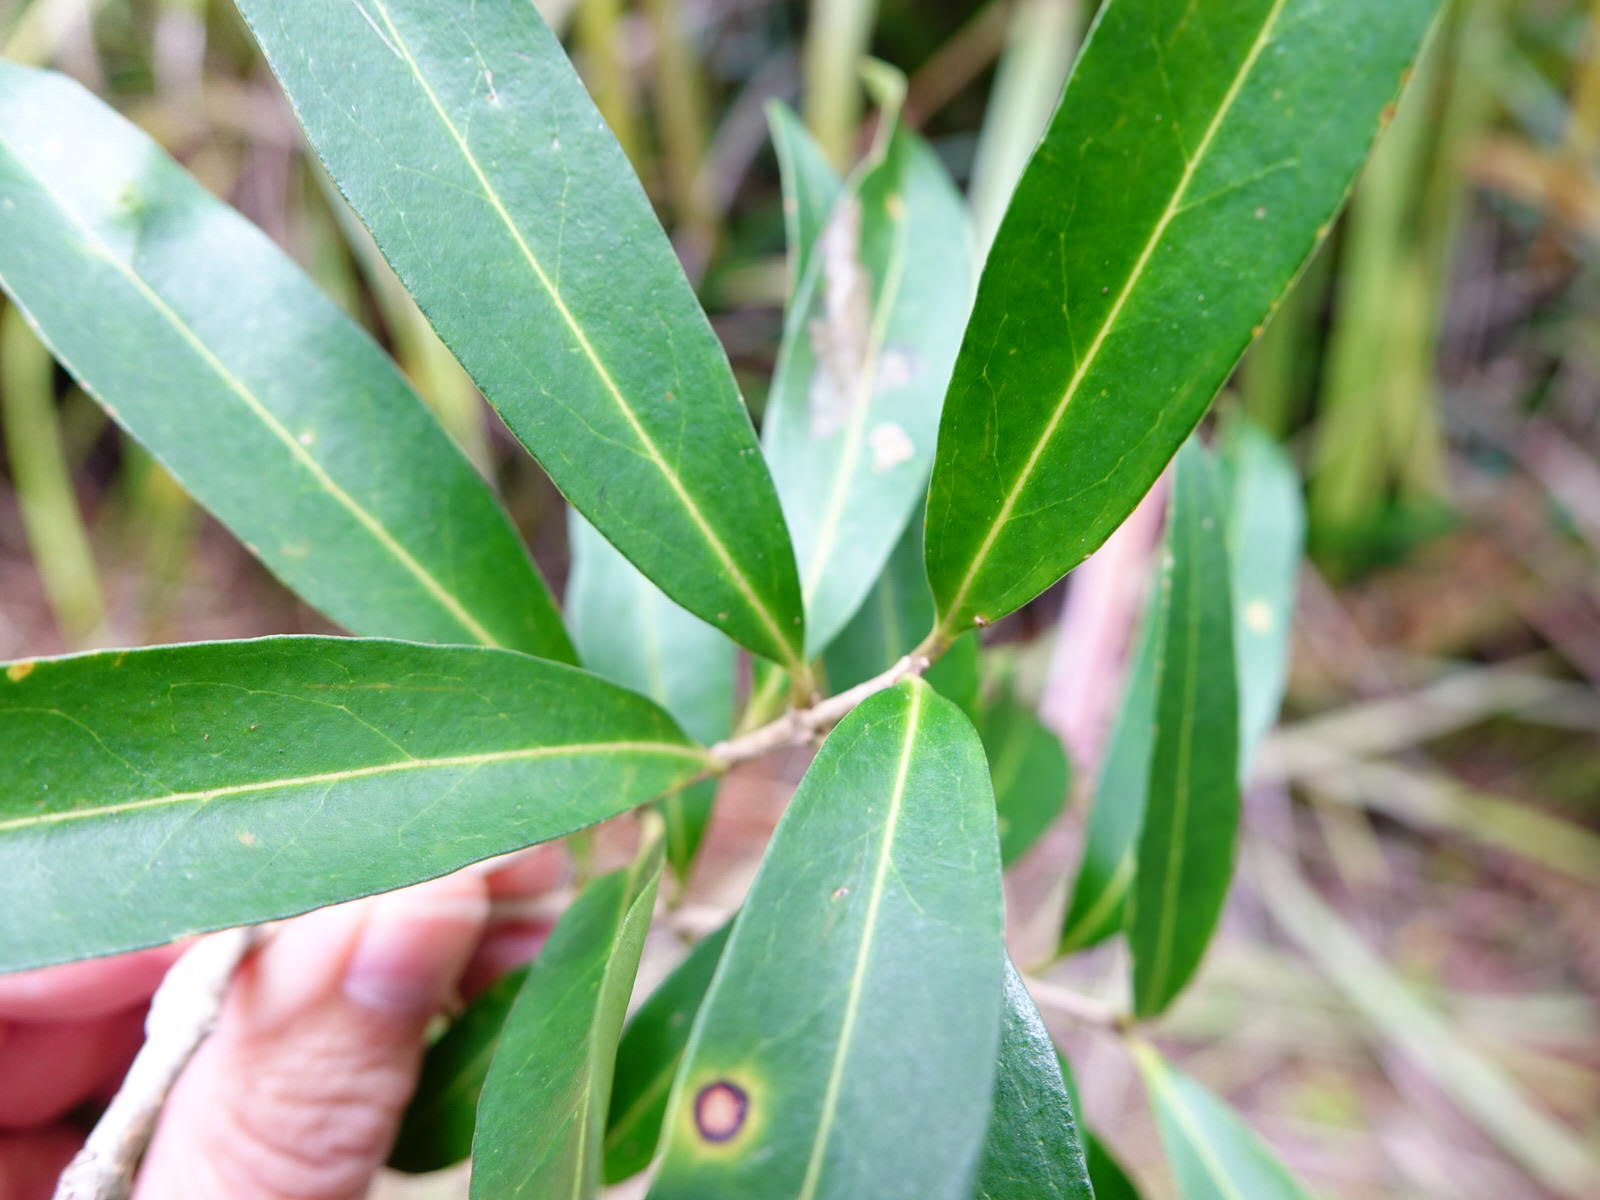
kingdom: Plantae
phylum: Tracheophyta
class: Magnoliopsida
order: Lamiales
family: Oleaceae
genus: Nestegis
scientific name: Nestegis lanceolata
